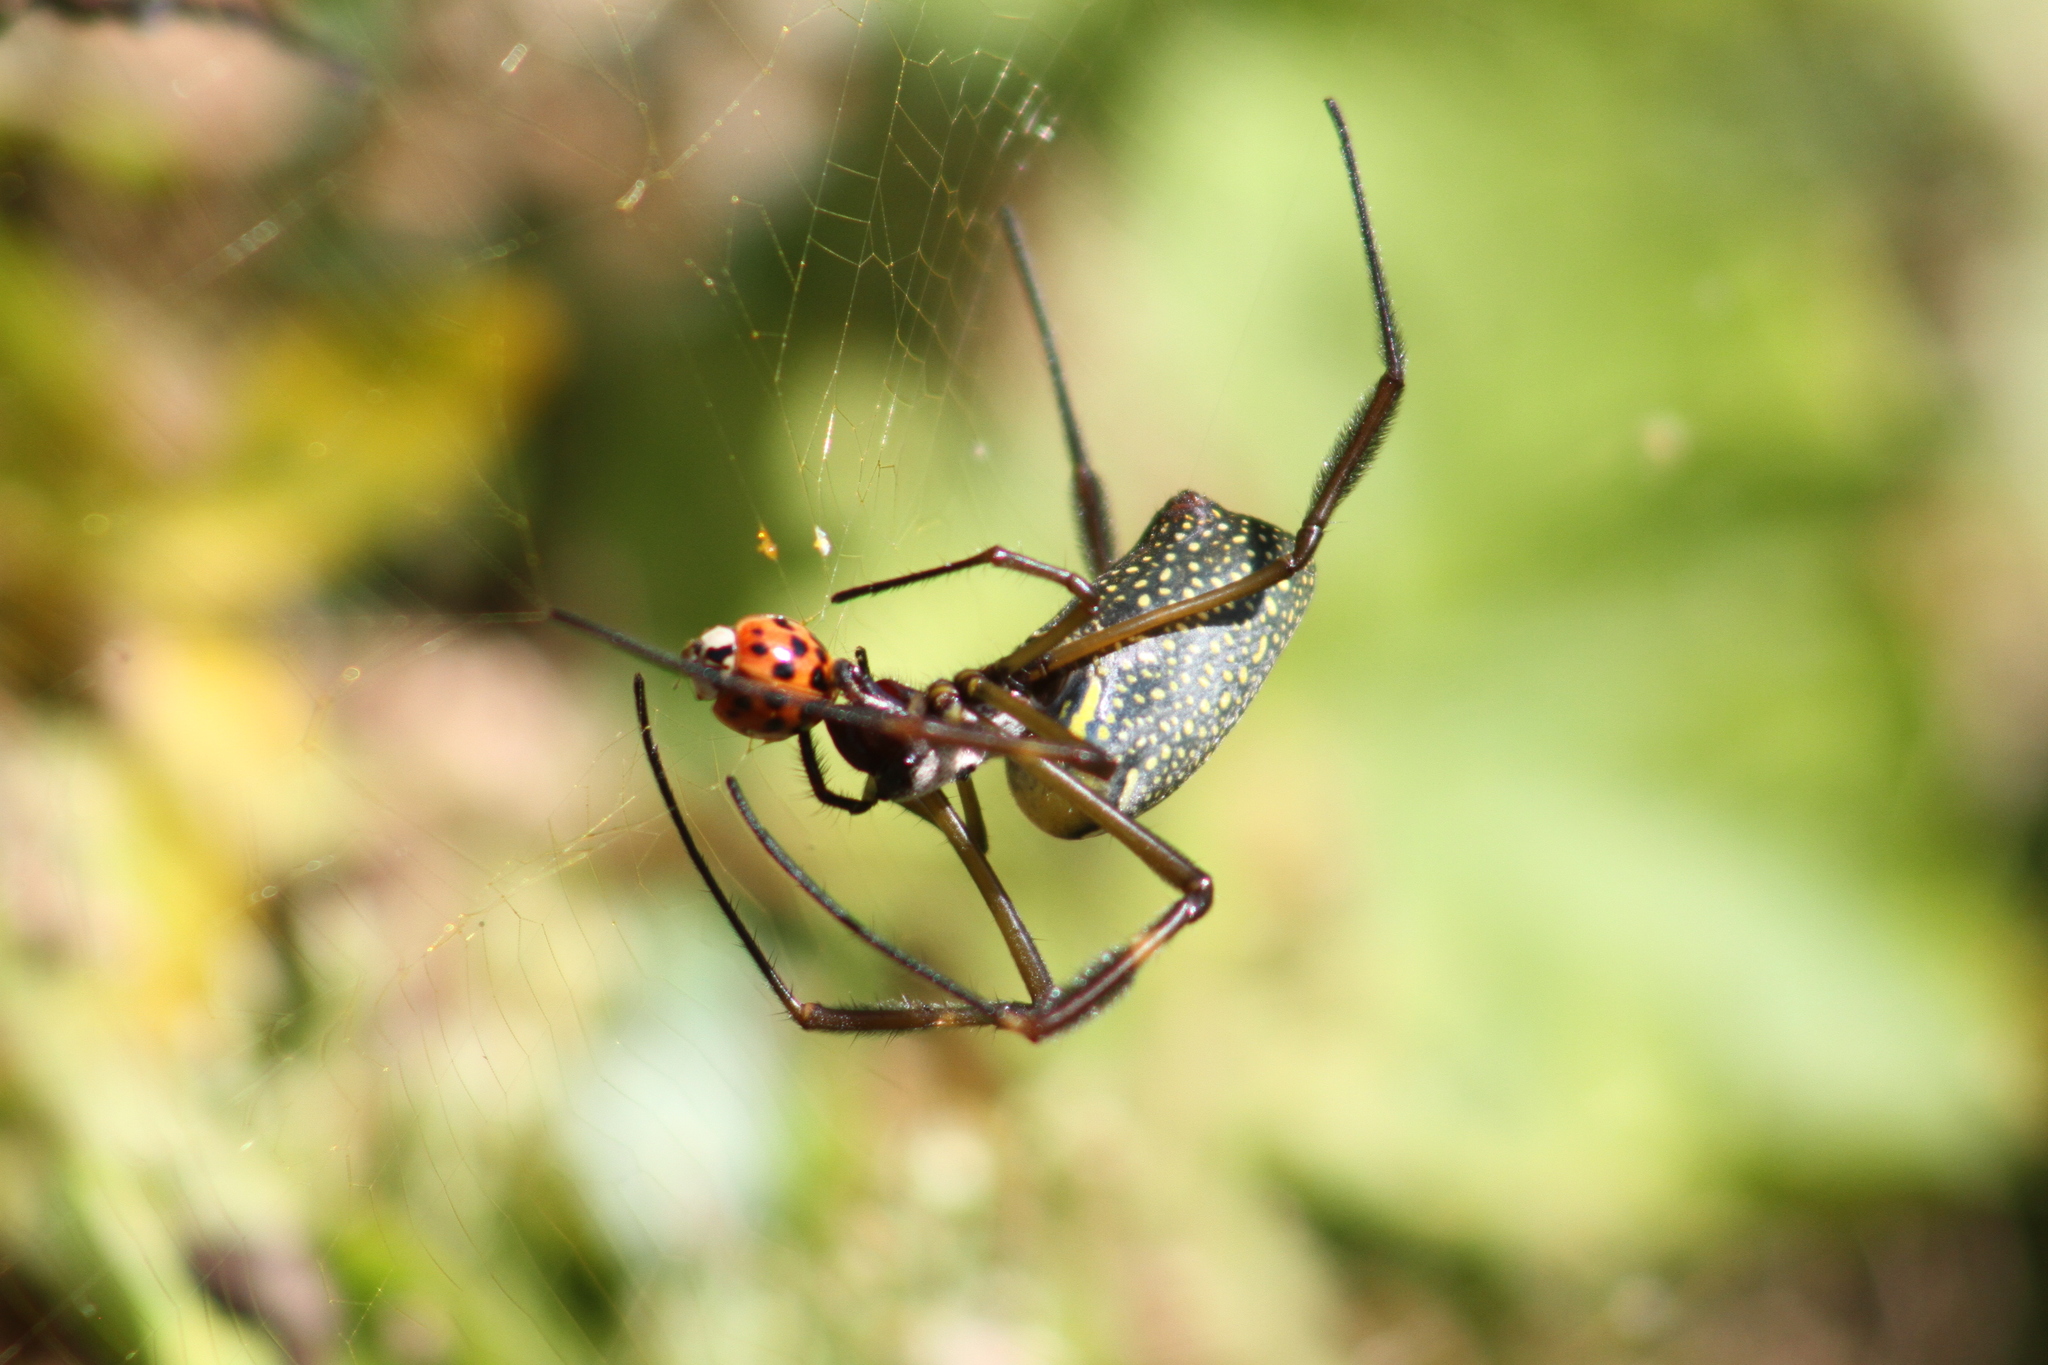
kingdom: Animalia
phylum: Arthropoda
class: Insecta
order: Coleoptera
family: Coccinellidae
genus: Harmonia
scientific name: Harmonia axyridis
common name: Harlequin ladybird
